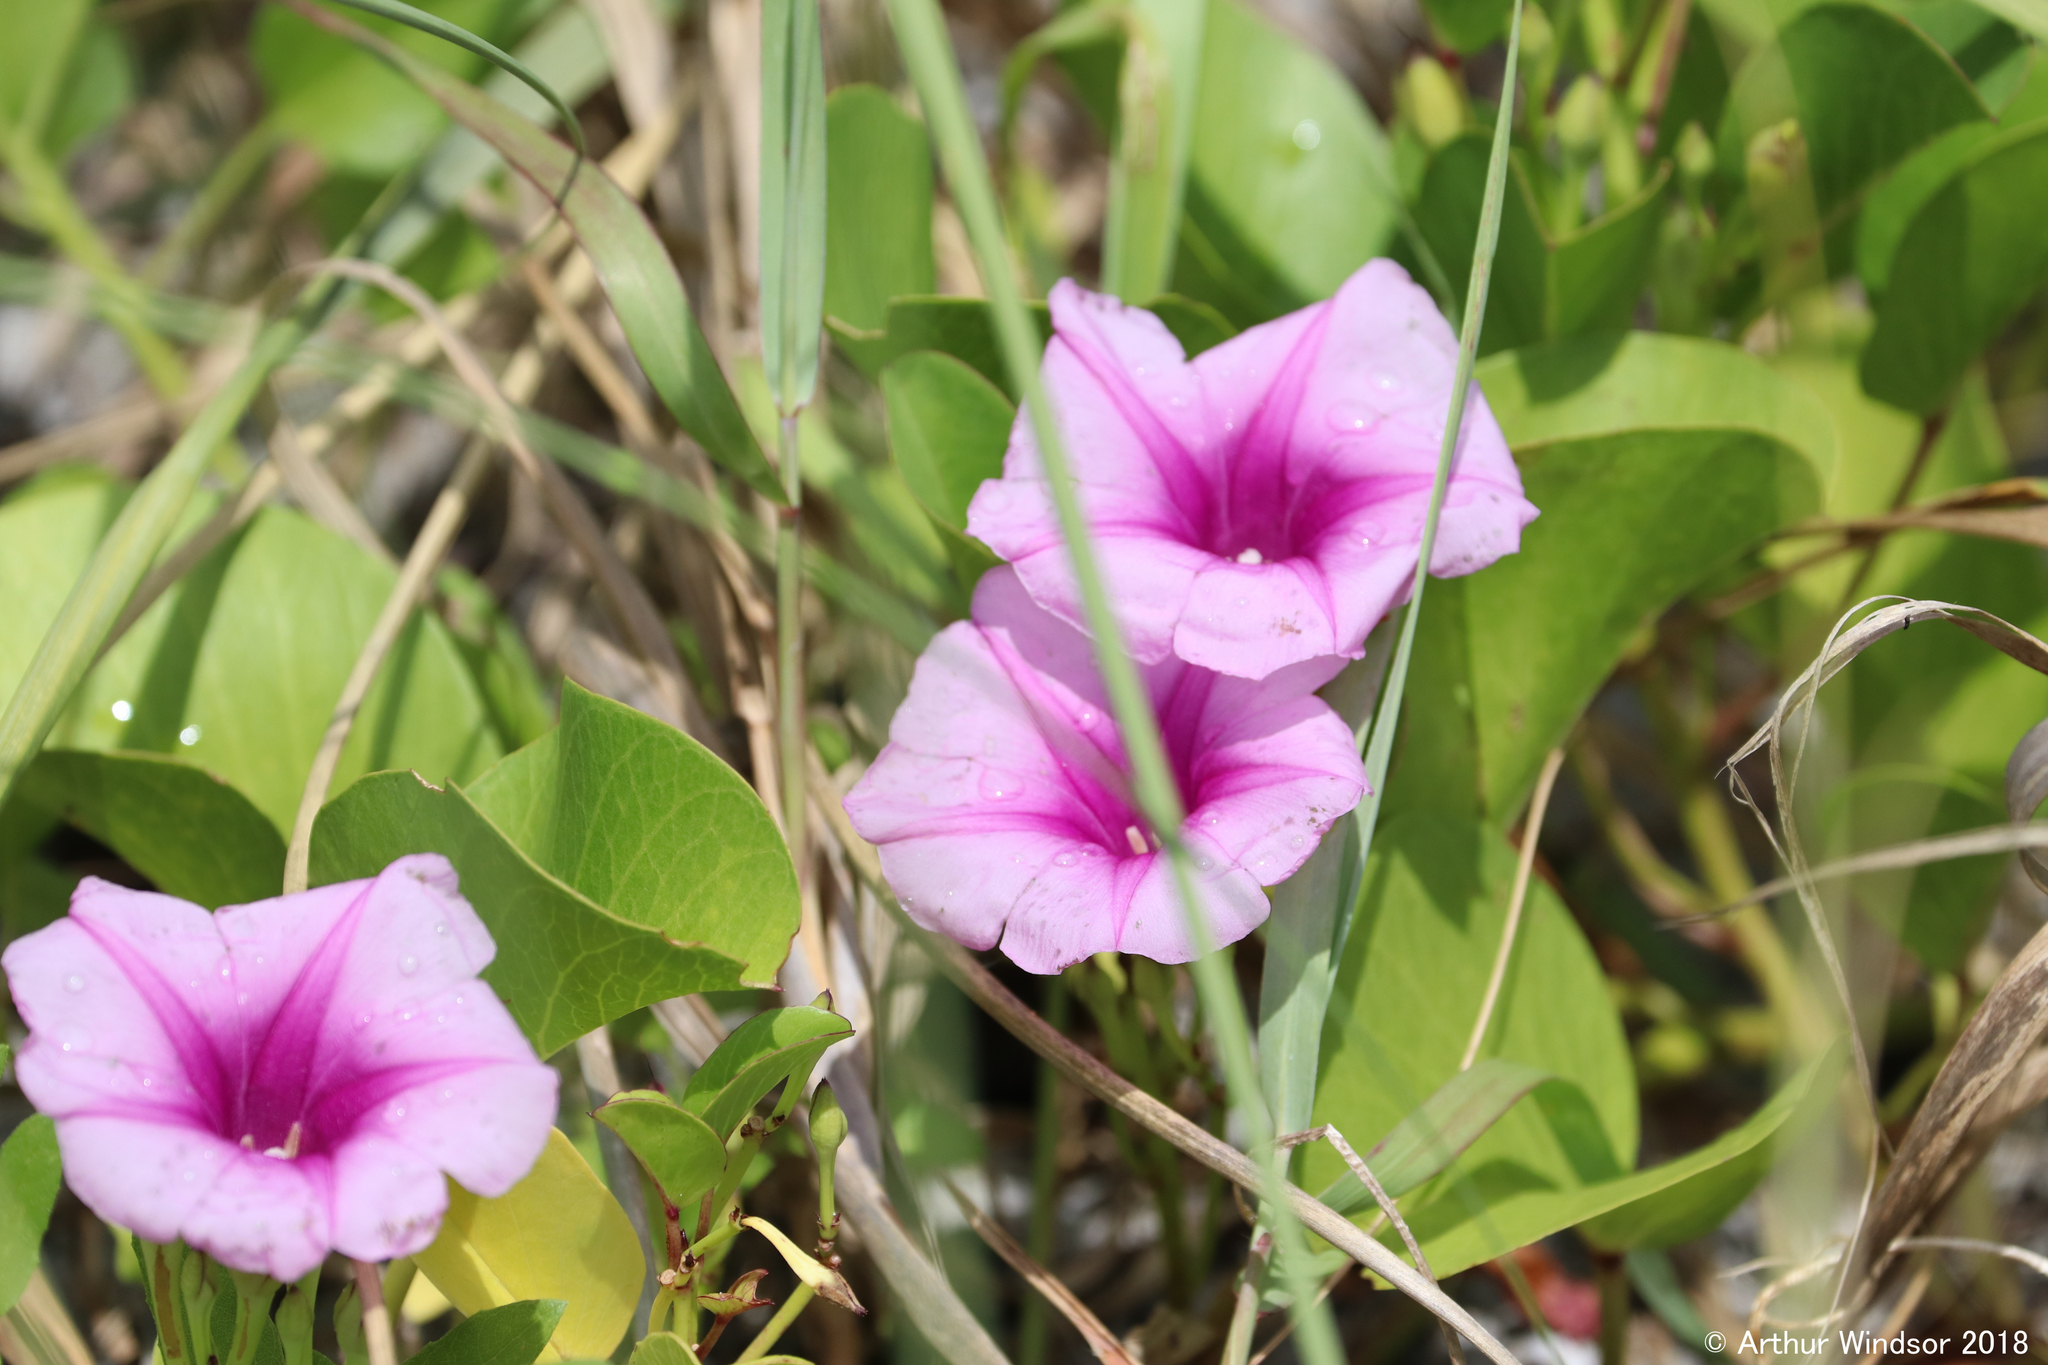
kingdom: Plantae
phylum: Tracheophyta
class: Magnoliopsida
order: Solanales
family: Convolvulaceae
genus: Ipomoea
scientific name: Ipomoea pes-caprae
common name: Beach morning glory
